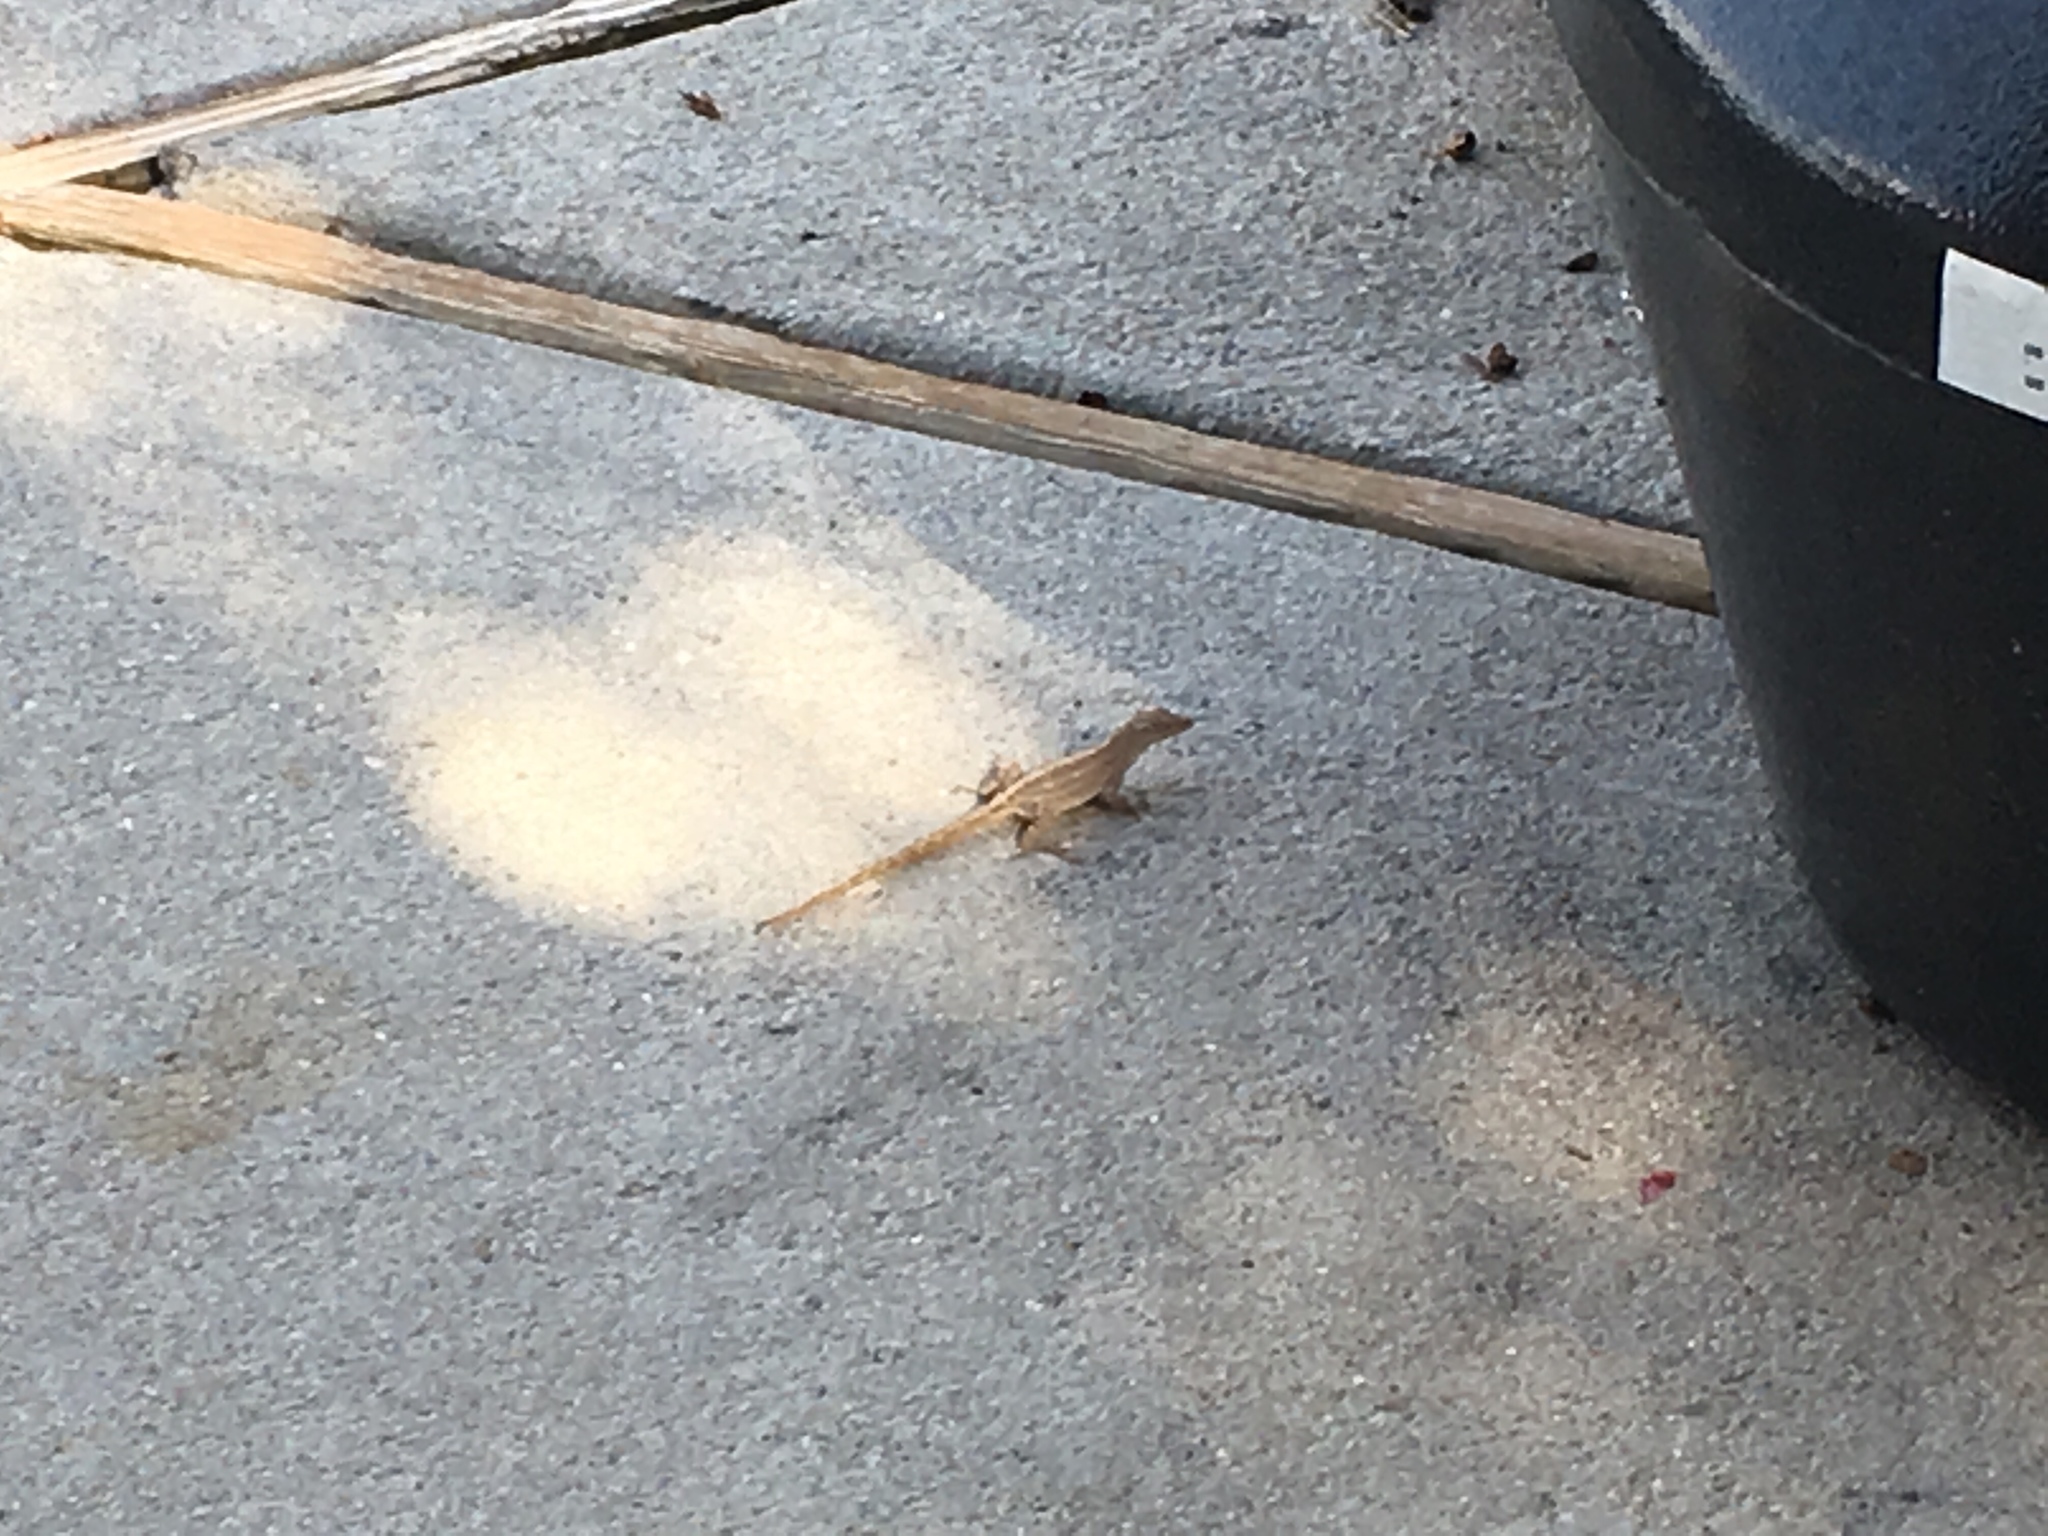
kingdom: Animalia
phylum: Chordata
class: Squamata
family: Dactyloidae
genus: Anolis
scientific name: Anolis sagrei
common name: Brown anole
